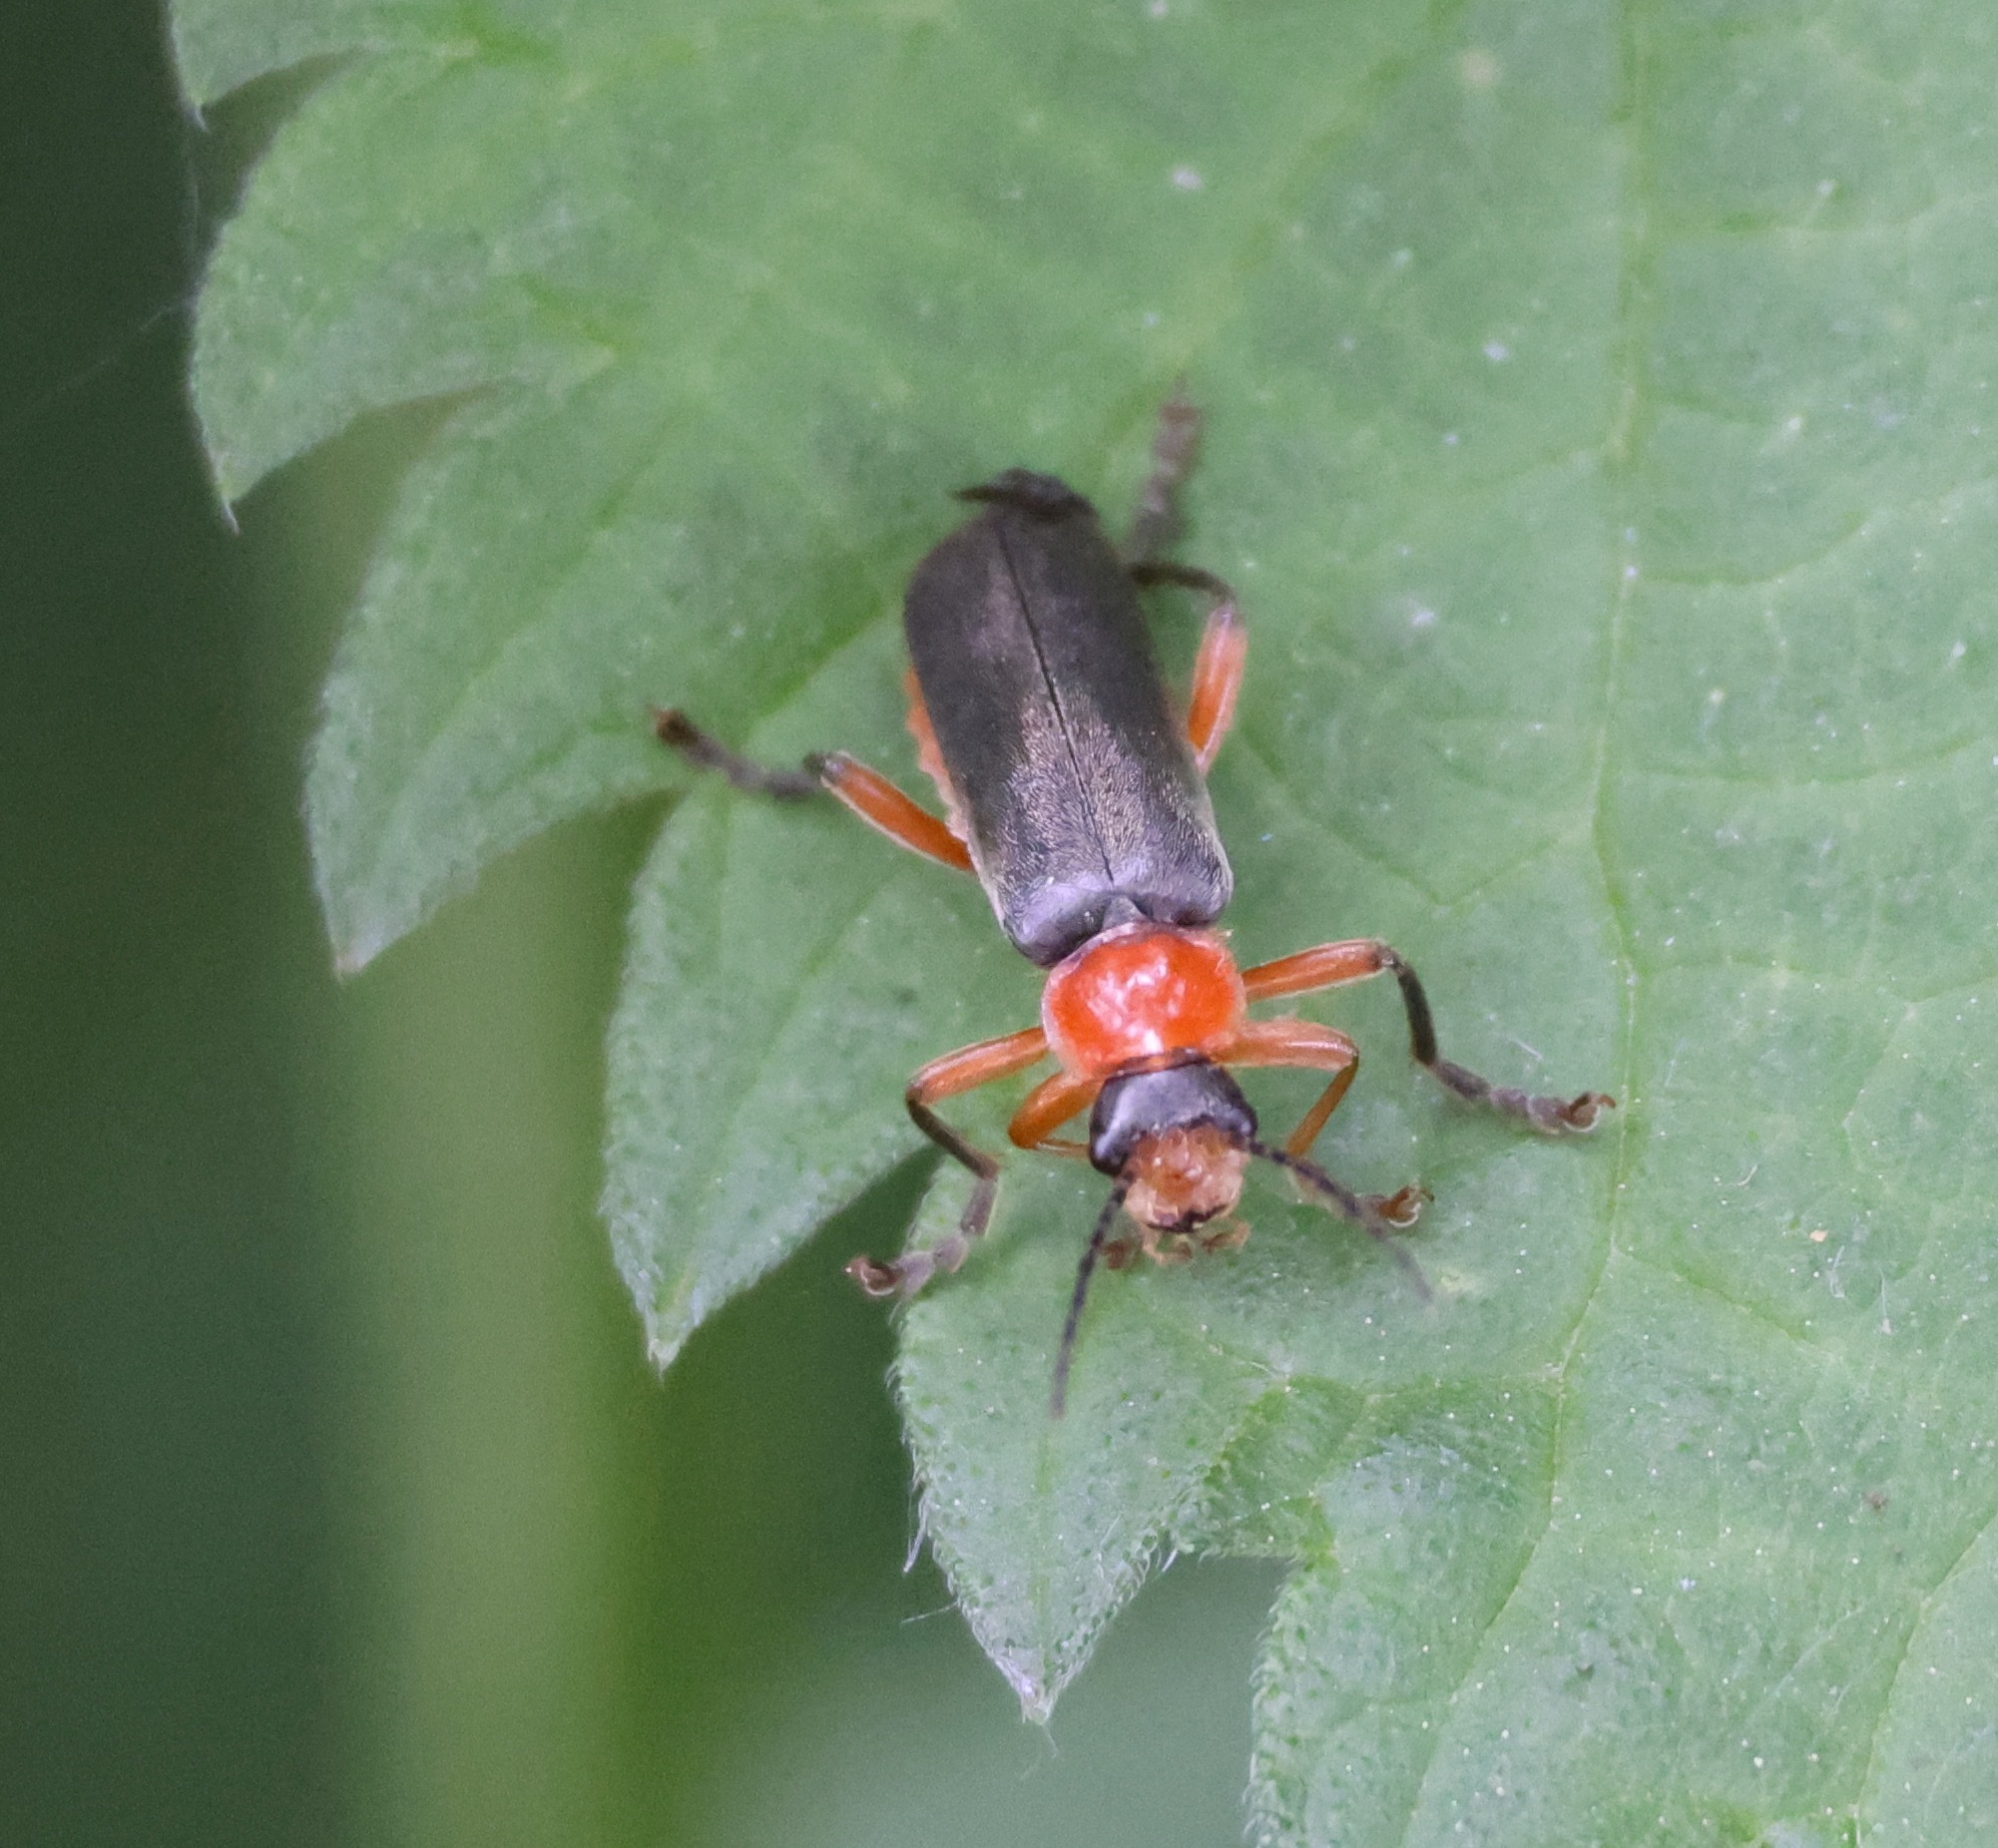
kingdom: Animalia
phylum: Arthropoda
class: Insecta
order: Coleoptera
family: Cantharidae
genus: Cantharis
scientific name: Cantharis pellucida
